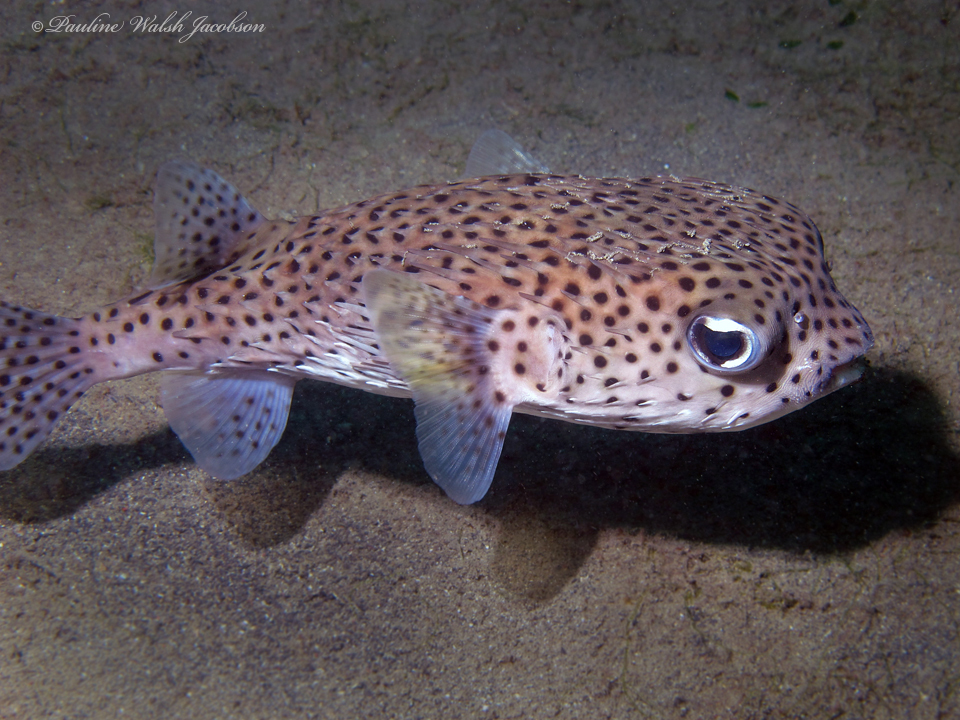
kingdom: Animalia
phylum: Chordata
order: Tetraodontiformes
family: Diodontidae
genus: Diodon
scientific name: Diodon hystrix
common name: Giant porcupinefish
